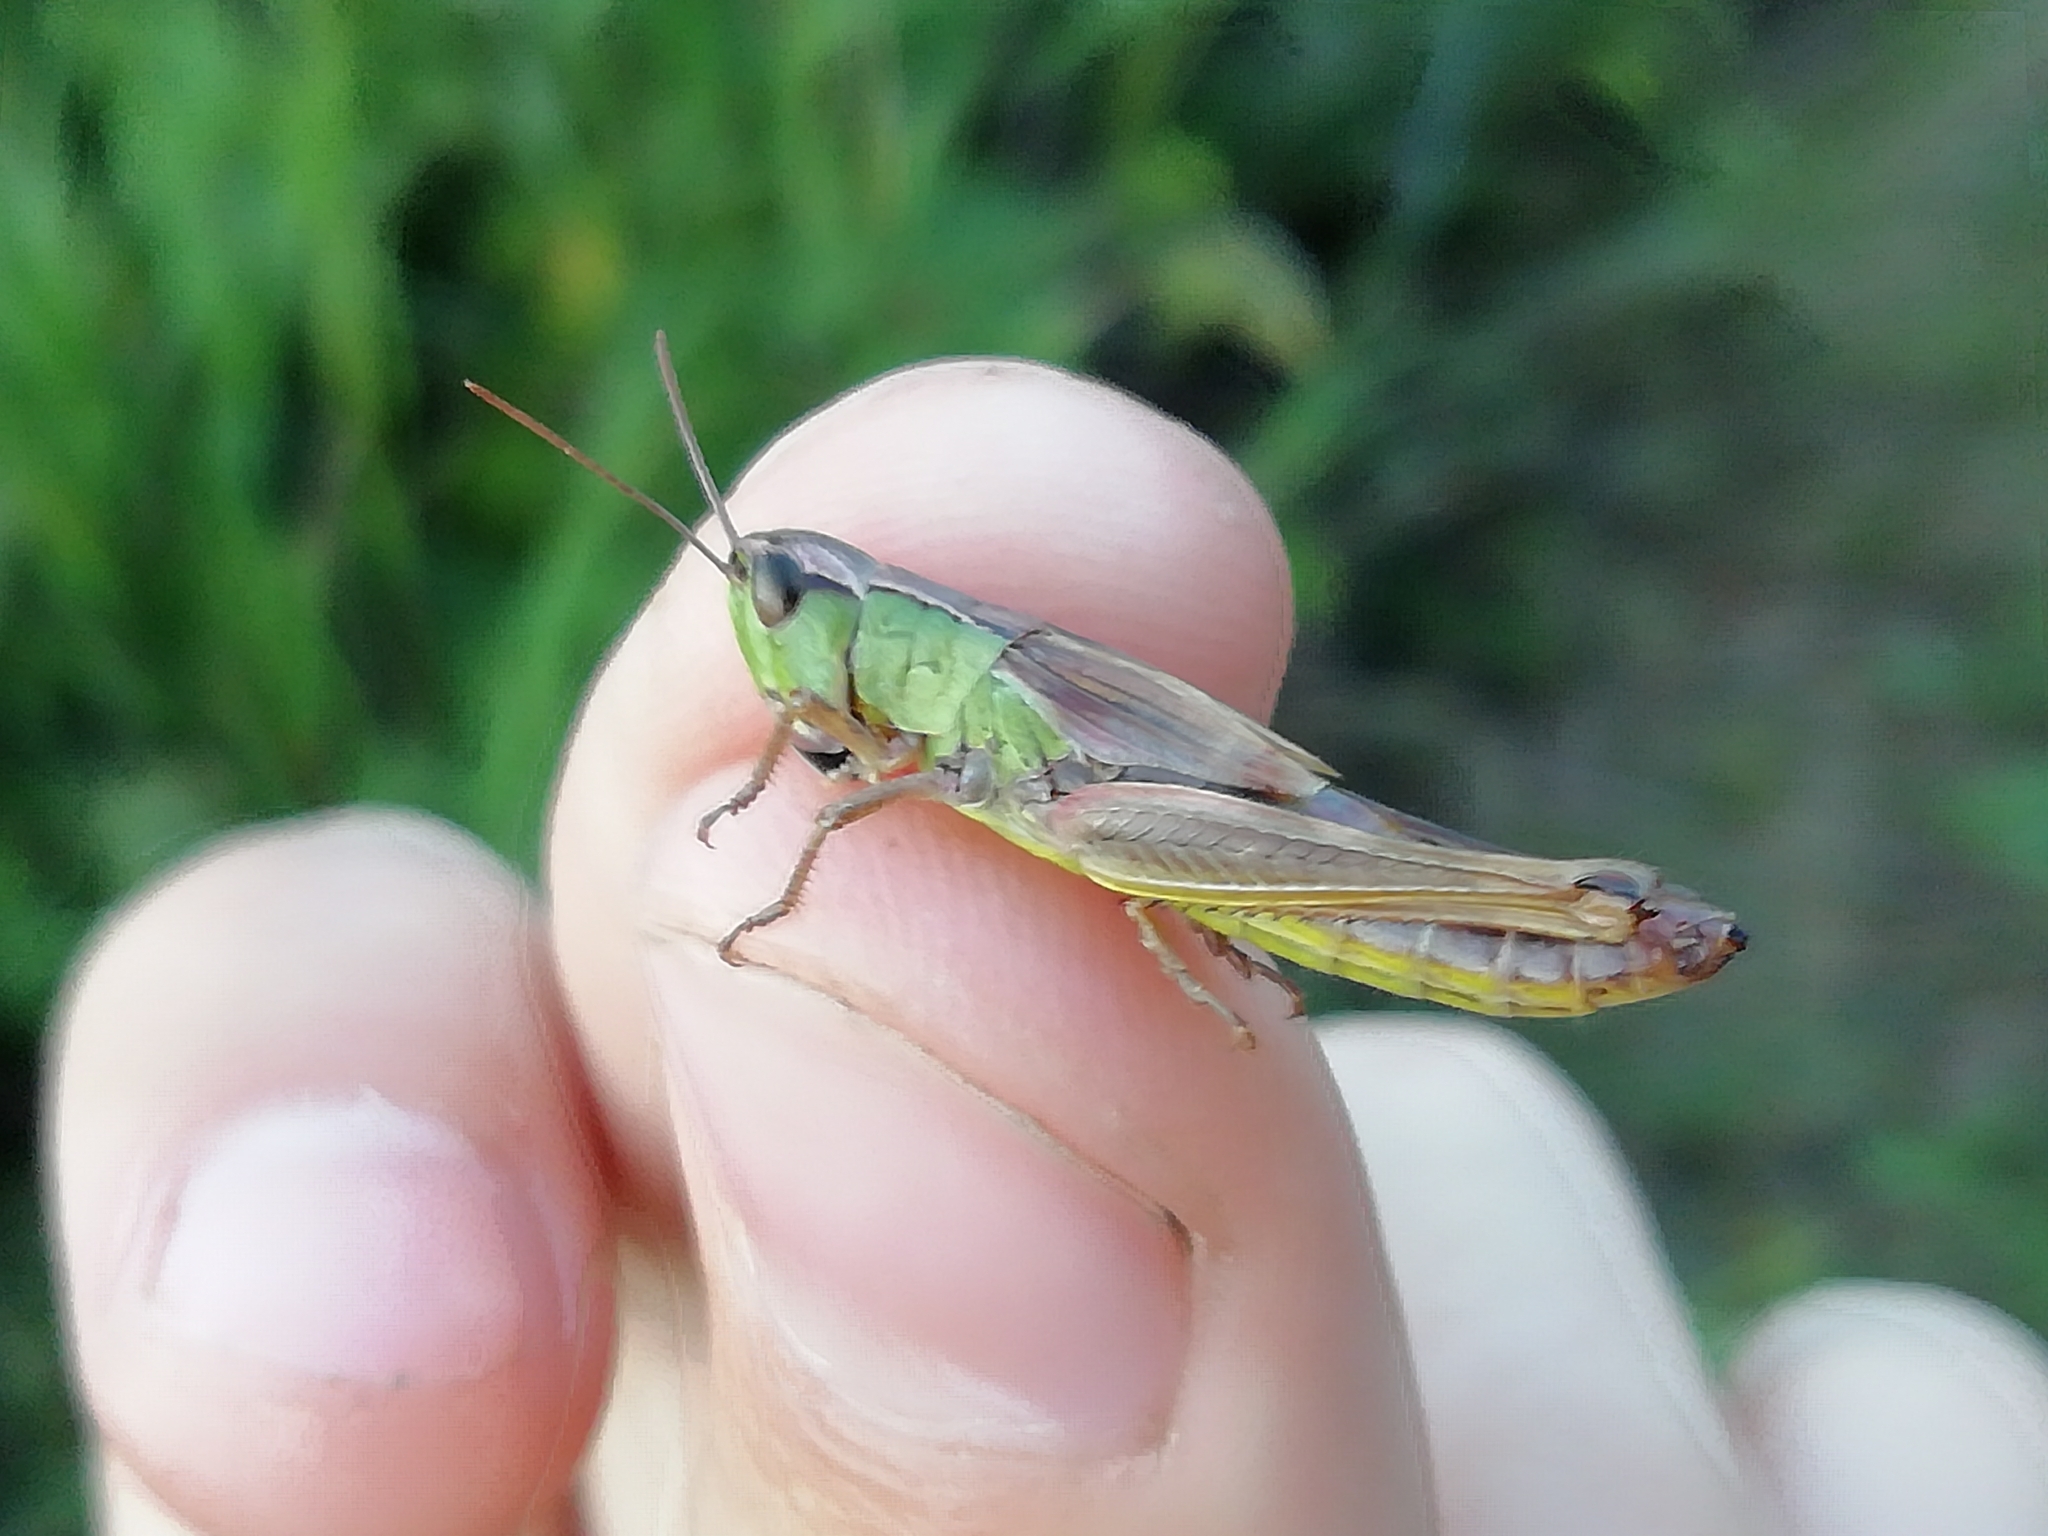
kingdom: Animalia
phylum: Arthropoda
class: Insecta
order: Orthoptera
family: Acrididae
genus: Pseudochorthippus
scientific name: Pseudochorthippus parallelus
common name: Meadow grasshopper
